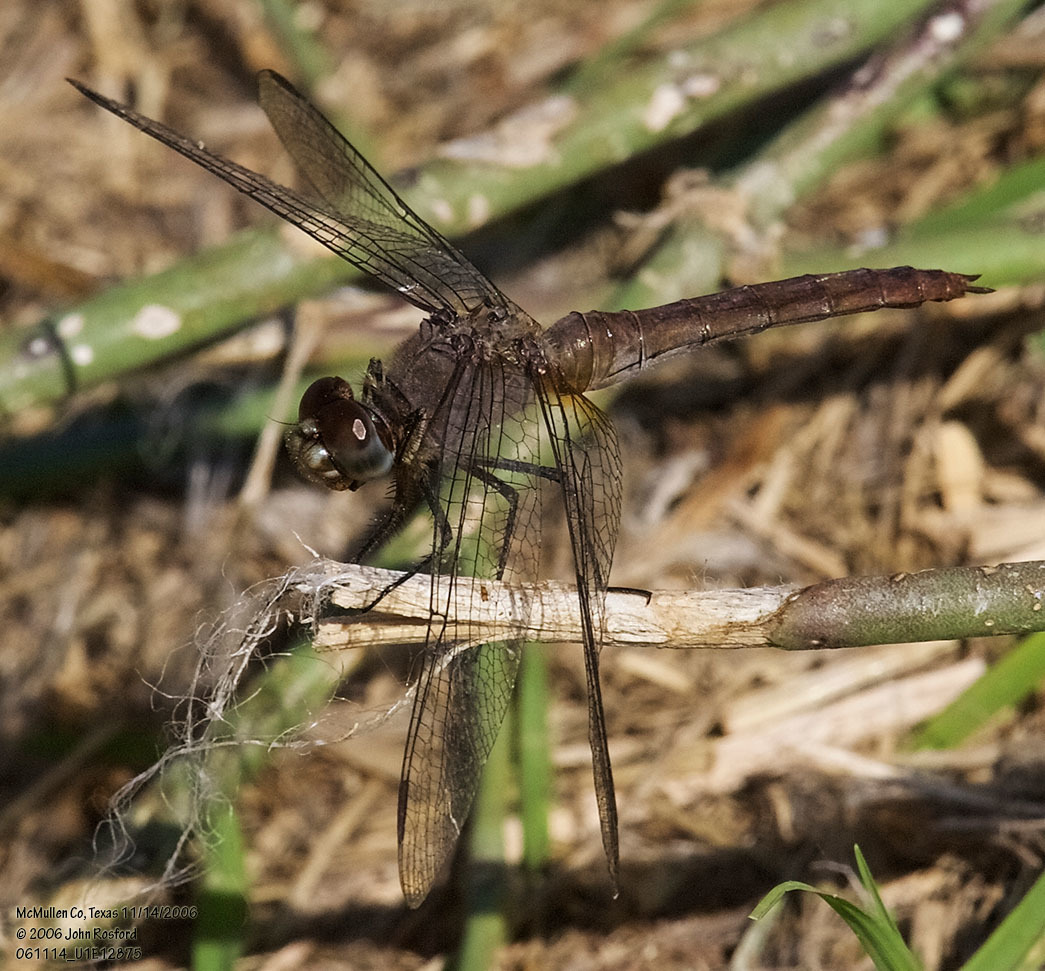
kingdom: Animalia
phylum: Arthropoda
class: Insecta
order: Odonata
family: Libellulidae
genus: Brachymesia
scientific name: Brachymesia furcata
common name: Red-taled pennant
